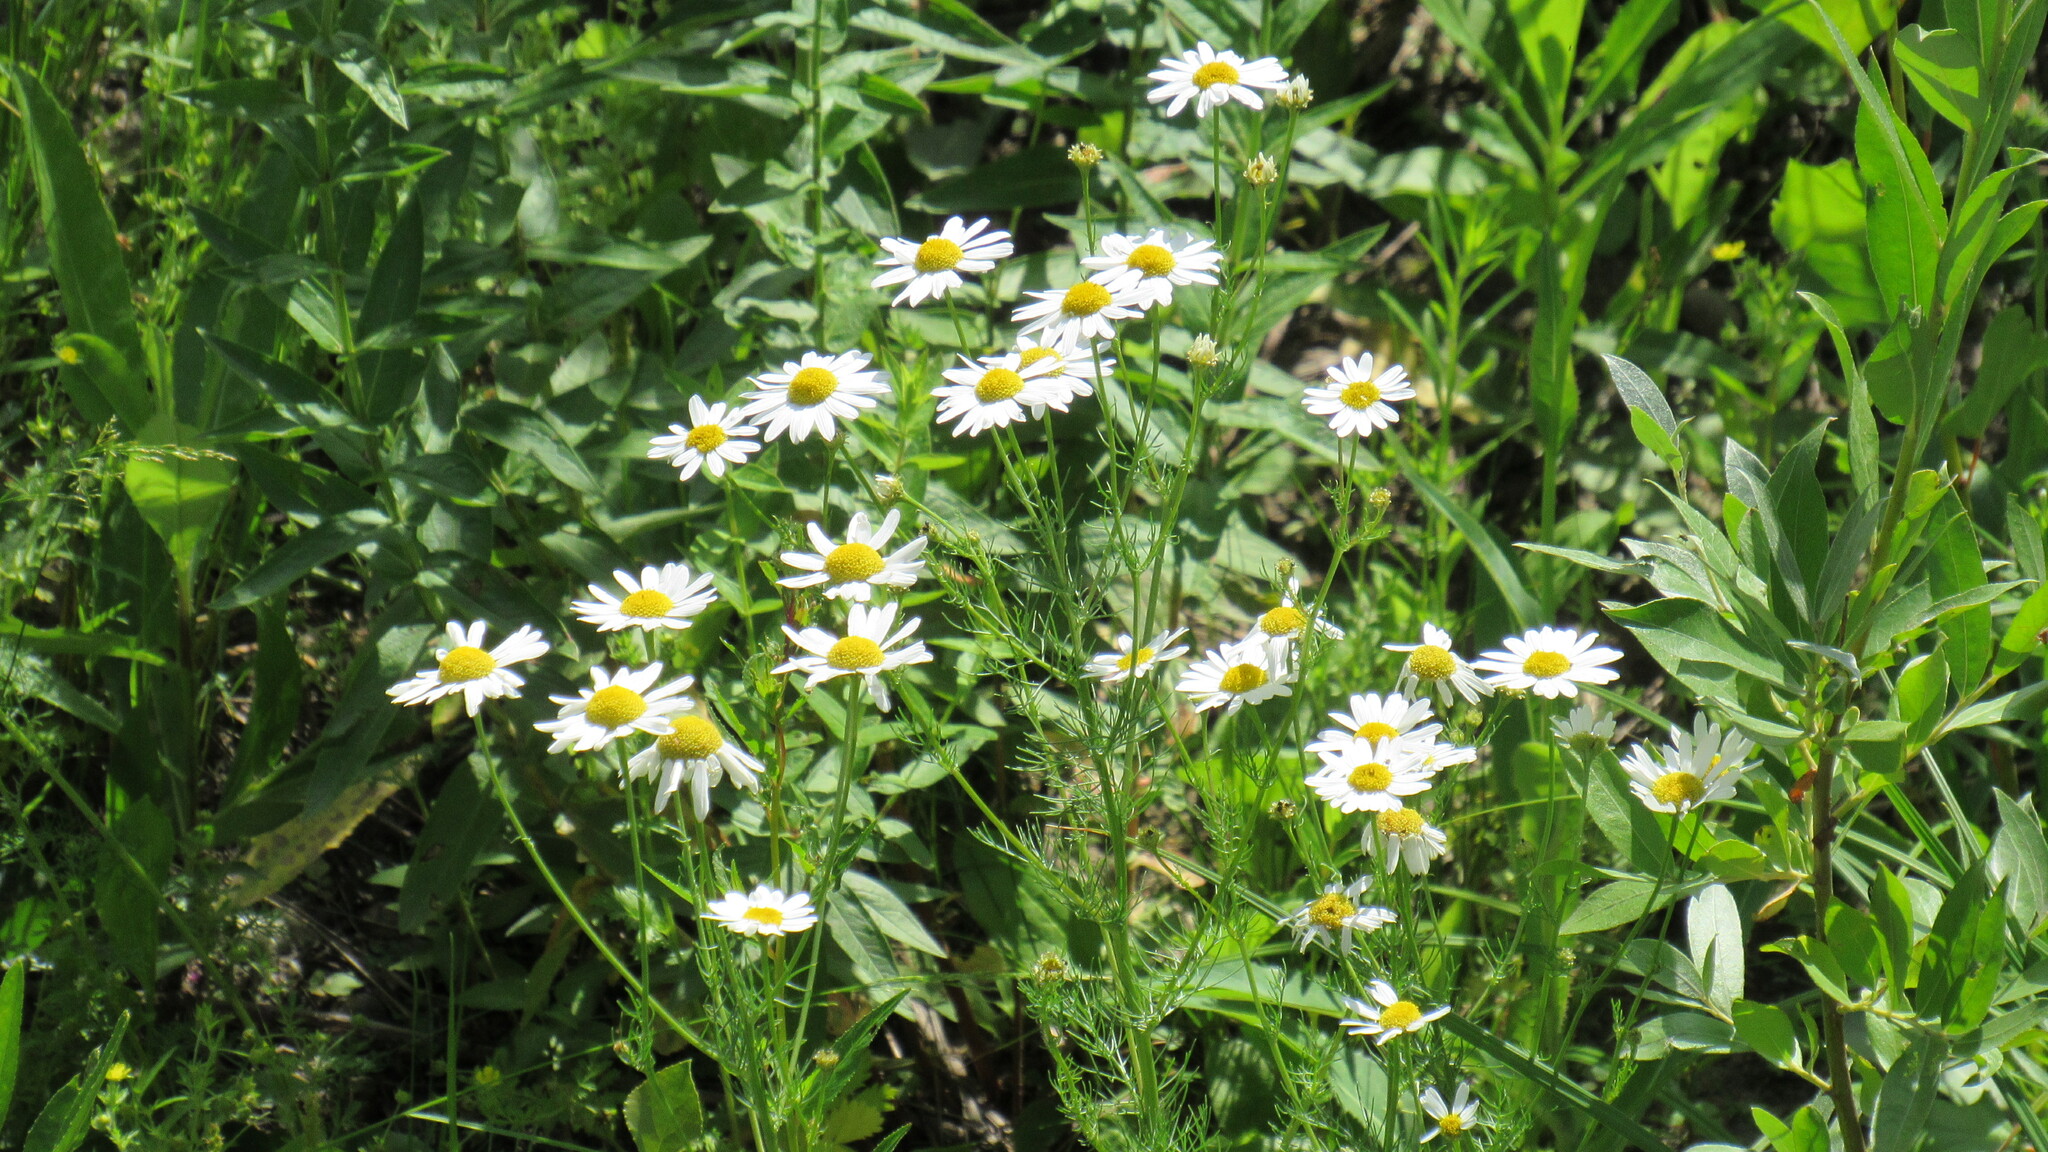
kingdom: Plantae
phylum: Tracheophyta
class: Magnoliopsida
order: Asterales
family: Asteraceae
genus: Tripleurospermum
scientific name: Tripleurospermum inodorum
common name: Scentless mayweed
